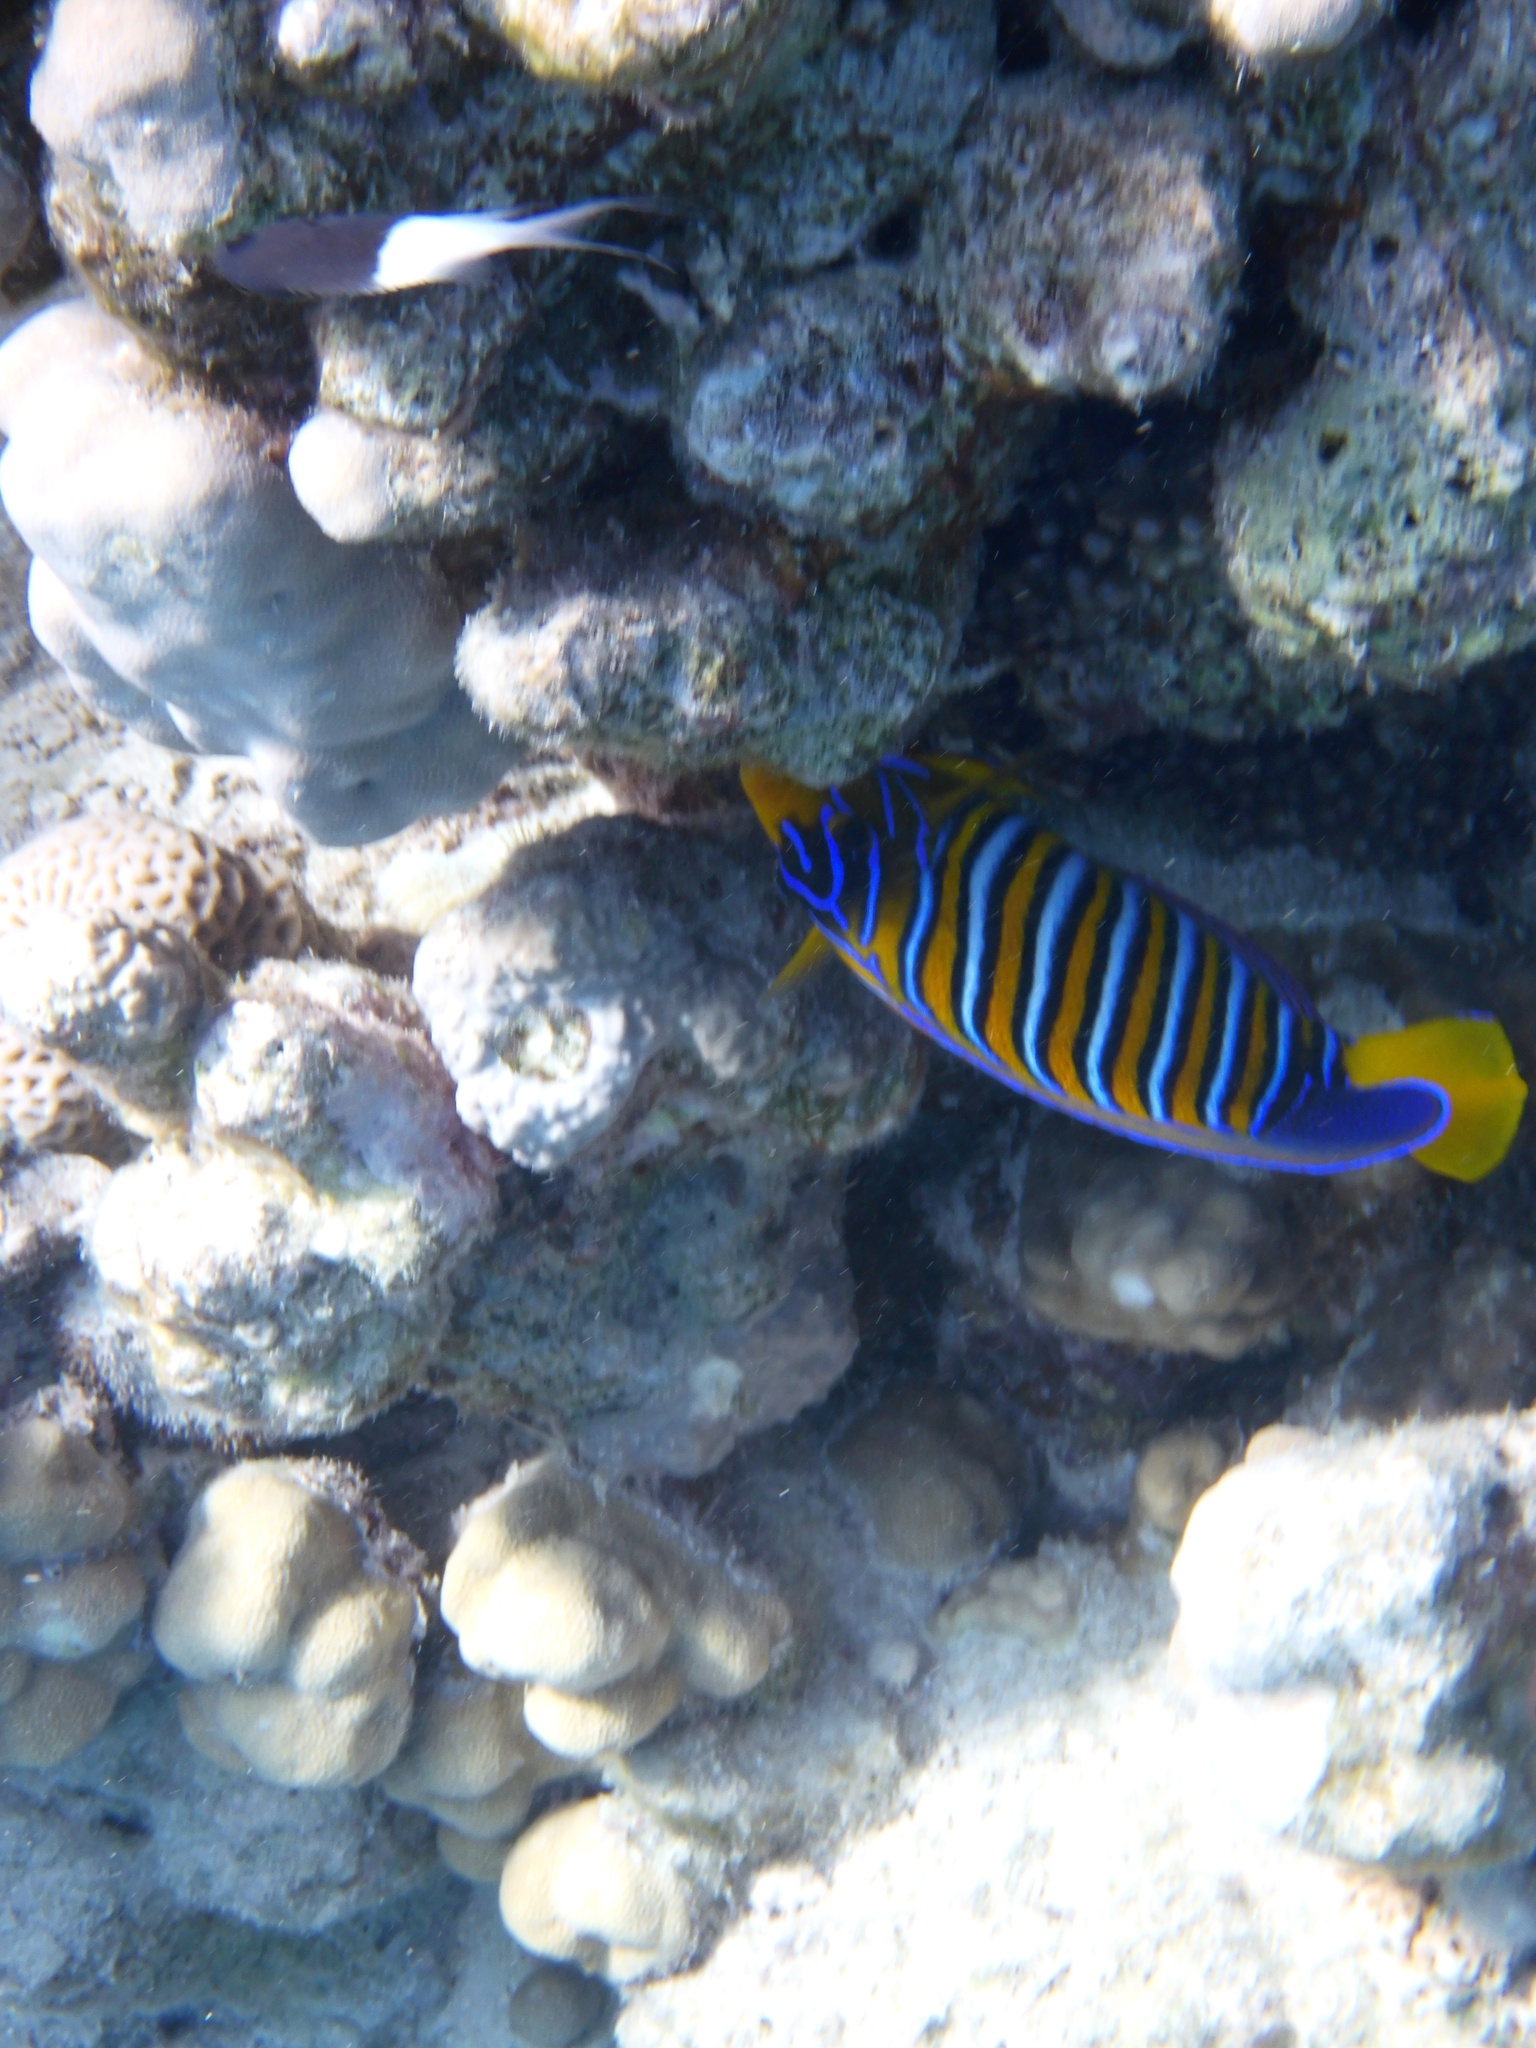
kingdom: Animalia
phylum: Chordata
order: Perciformes
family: Pomacanthidae
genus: Pygoplites
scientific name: Pygoplites diacanthus
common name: Regal angelfish
